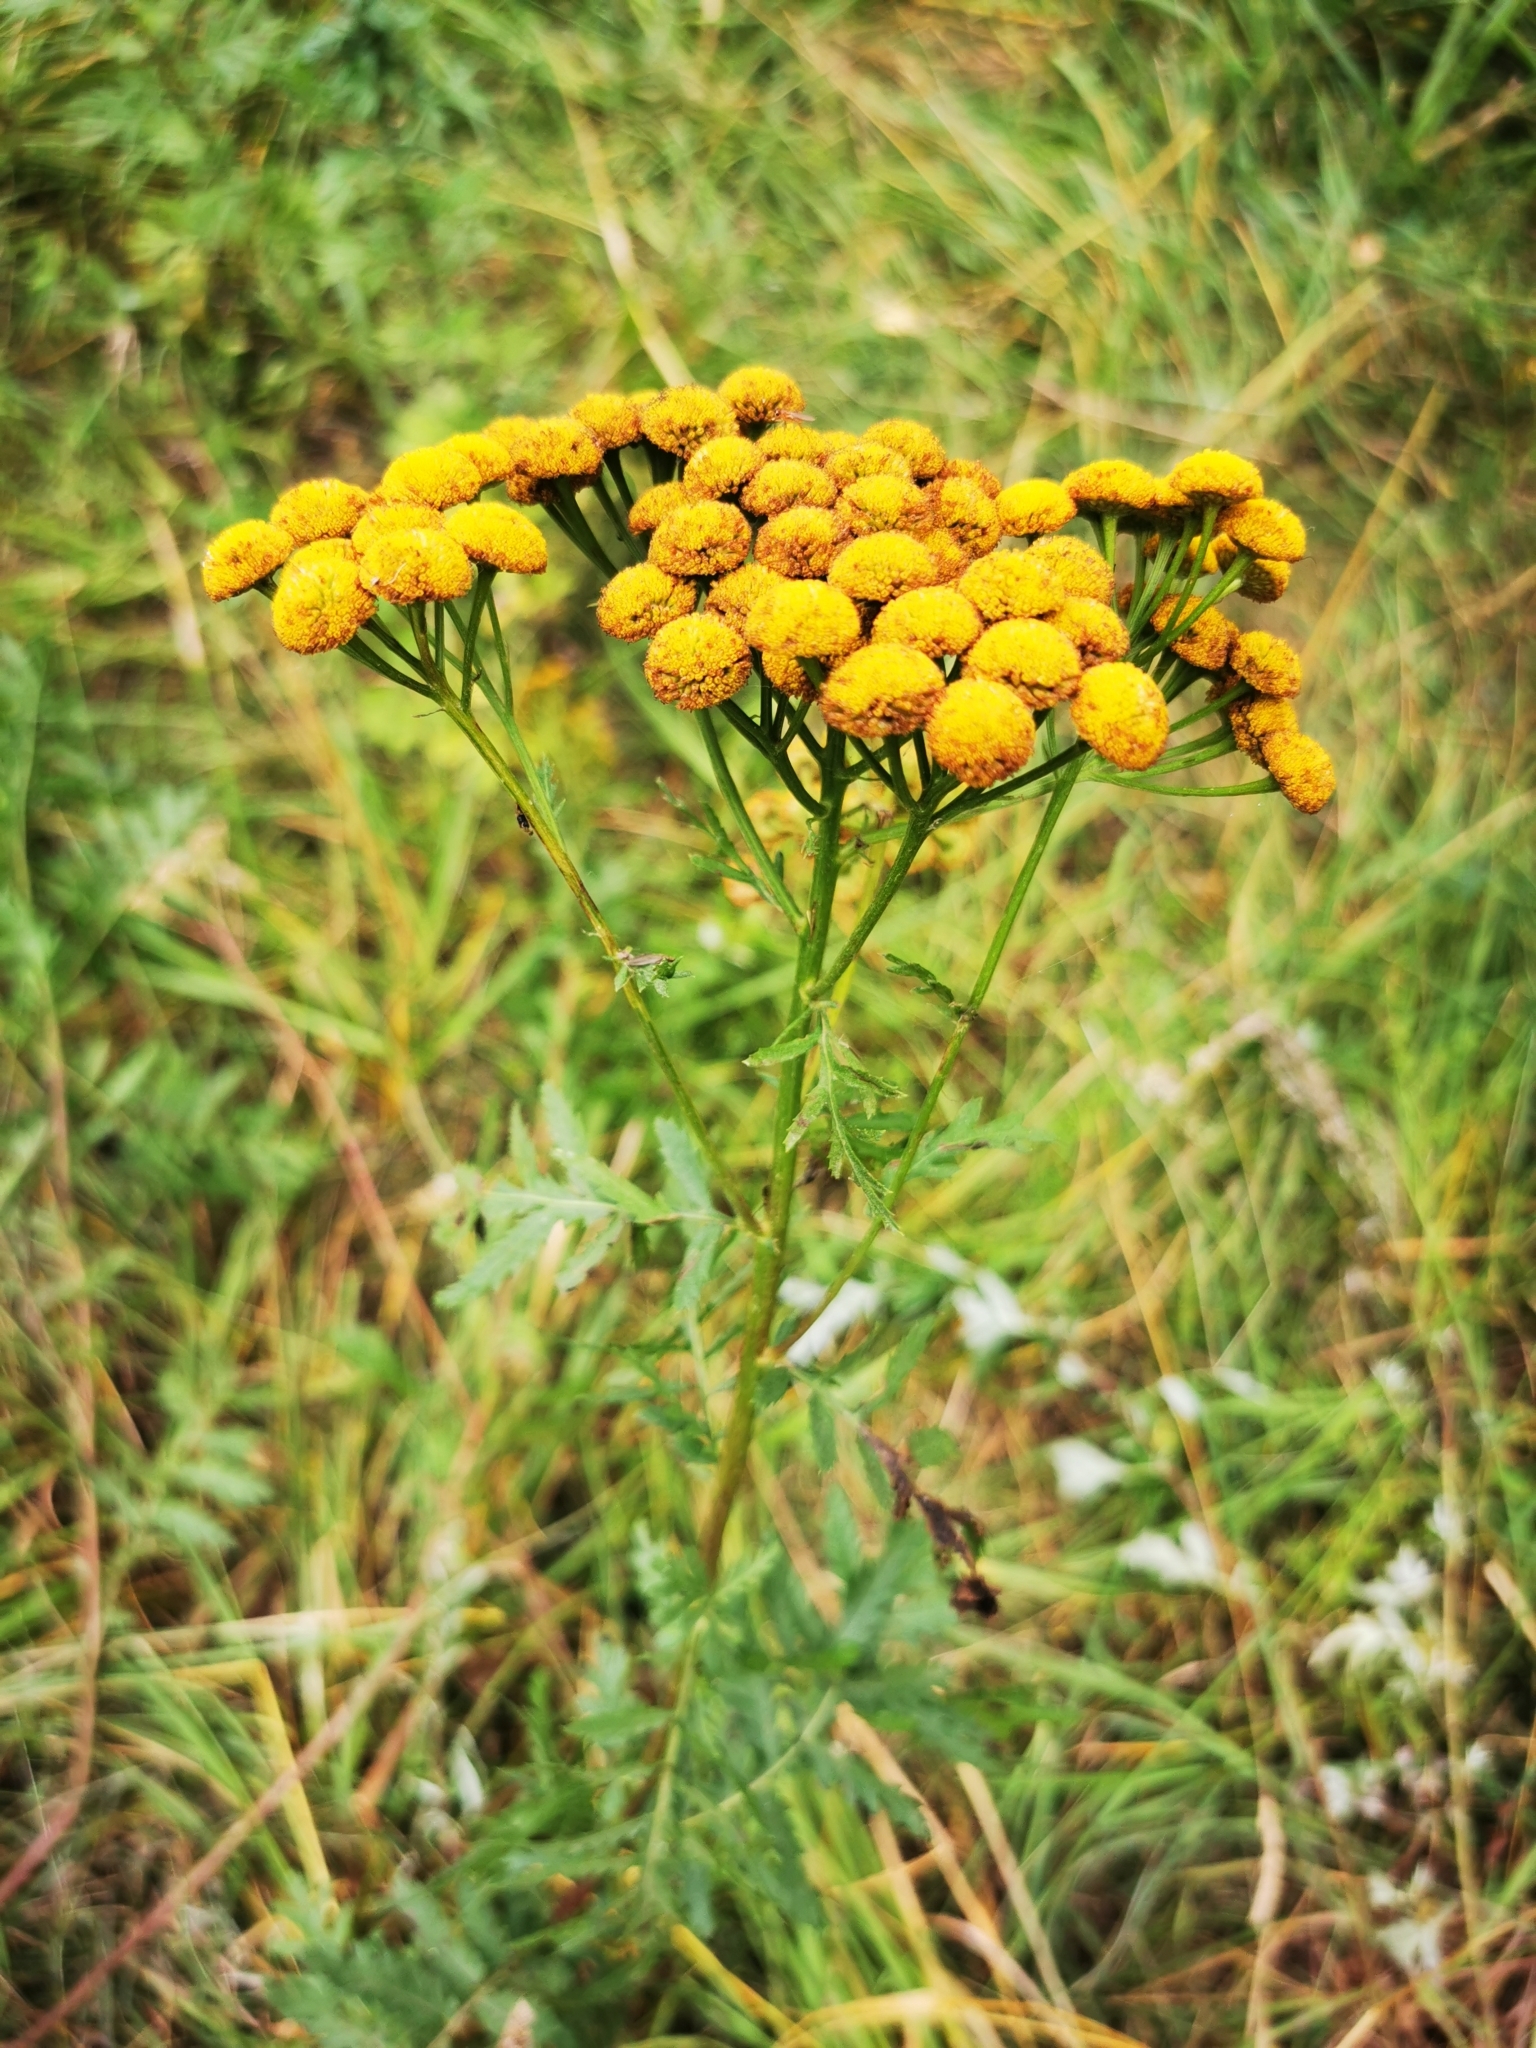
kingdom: Plantae
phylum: Tracheophyta
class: Magnoliopsida
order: Asterales
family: Asteraceae
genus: Tanacetum
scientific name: Tanacetum vulgare
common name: Common tansy
